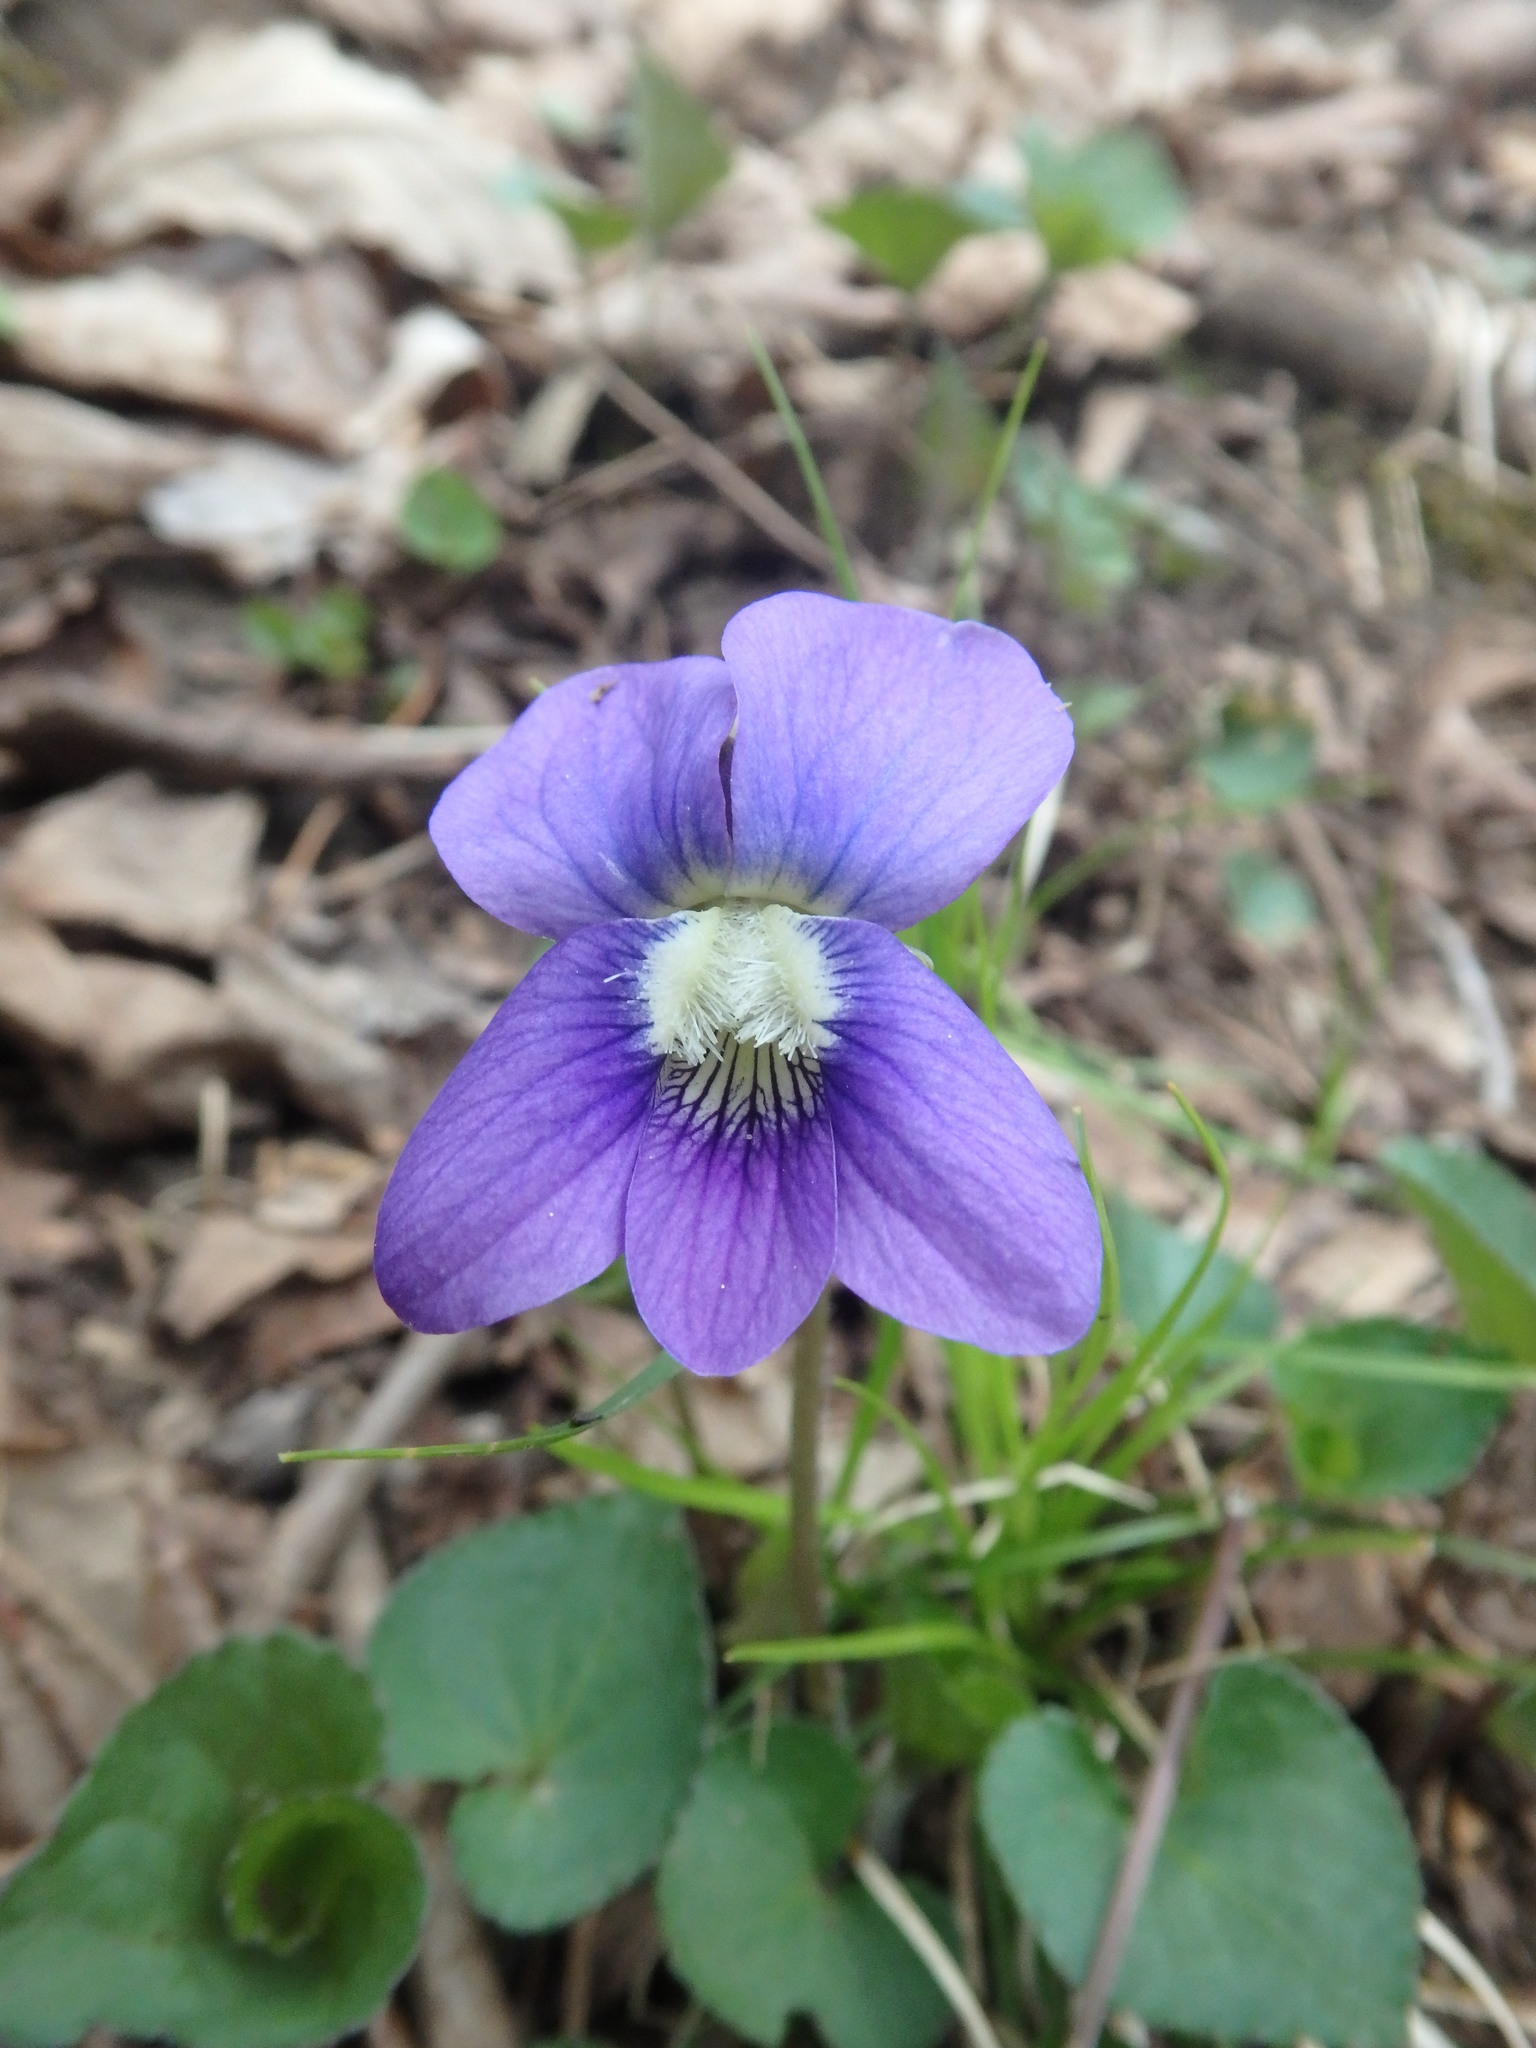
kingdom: Plantae
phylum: Tracheophyta
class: Magnoliopsida
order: Malpighiales
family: Violaceae
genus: Viola
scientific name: Viola sororia
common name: Dooryard violet
